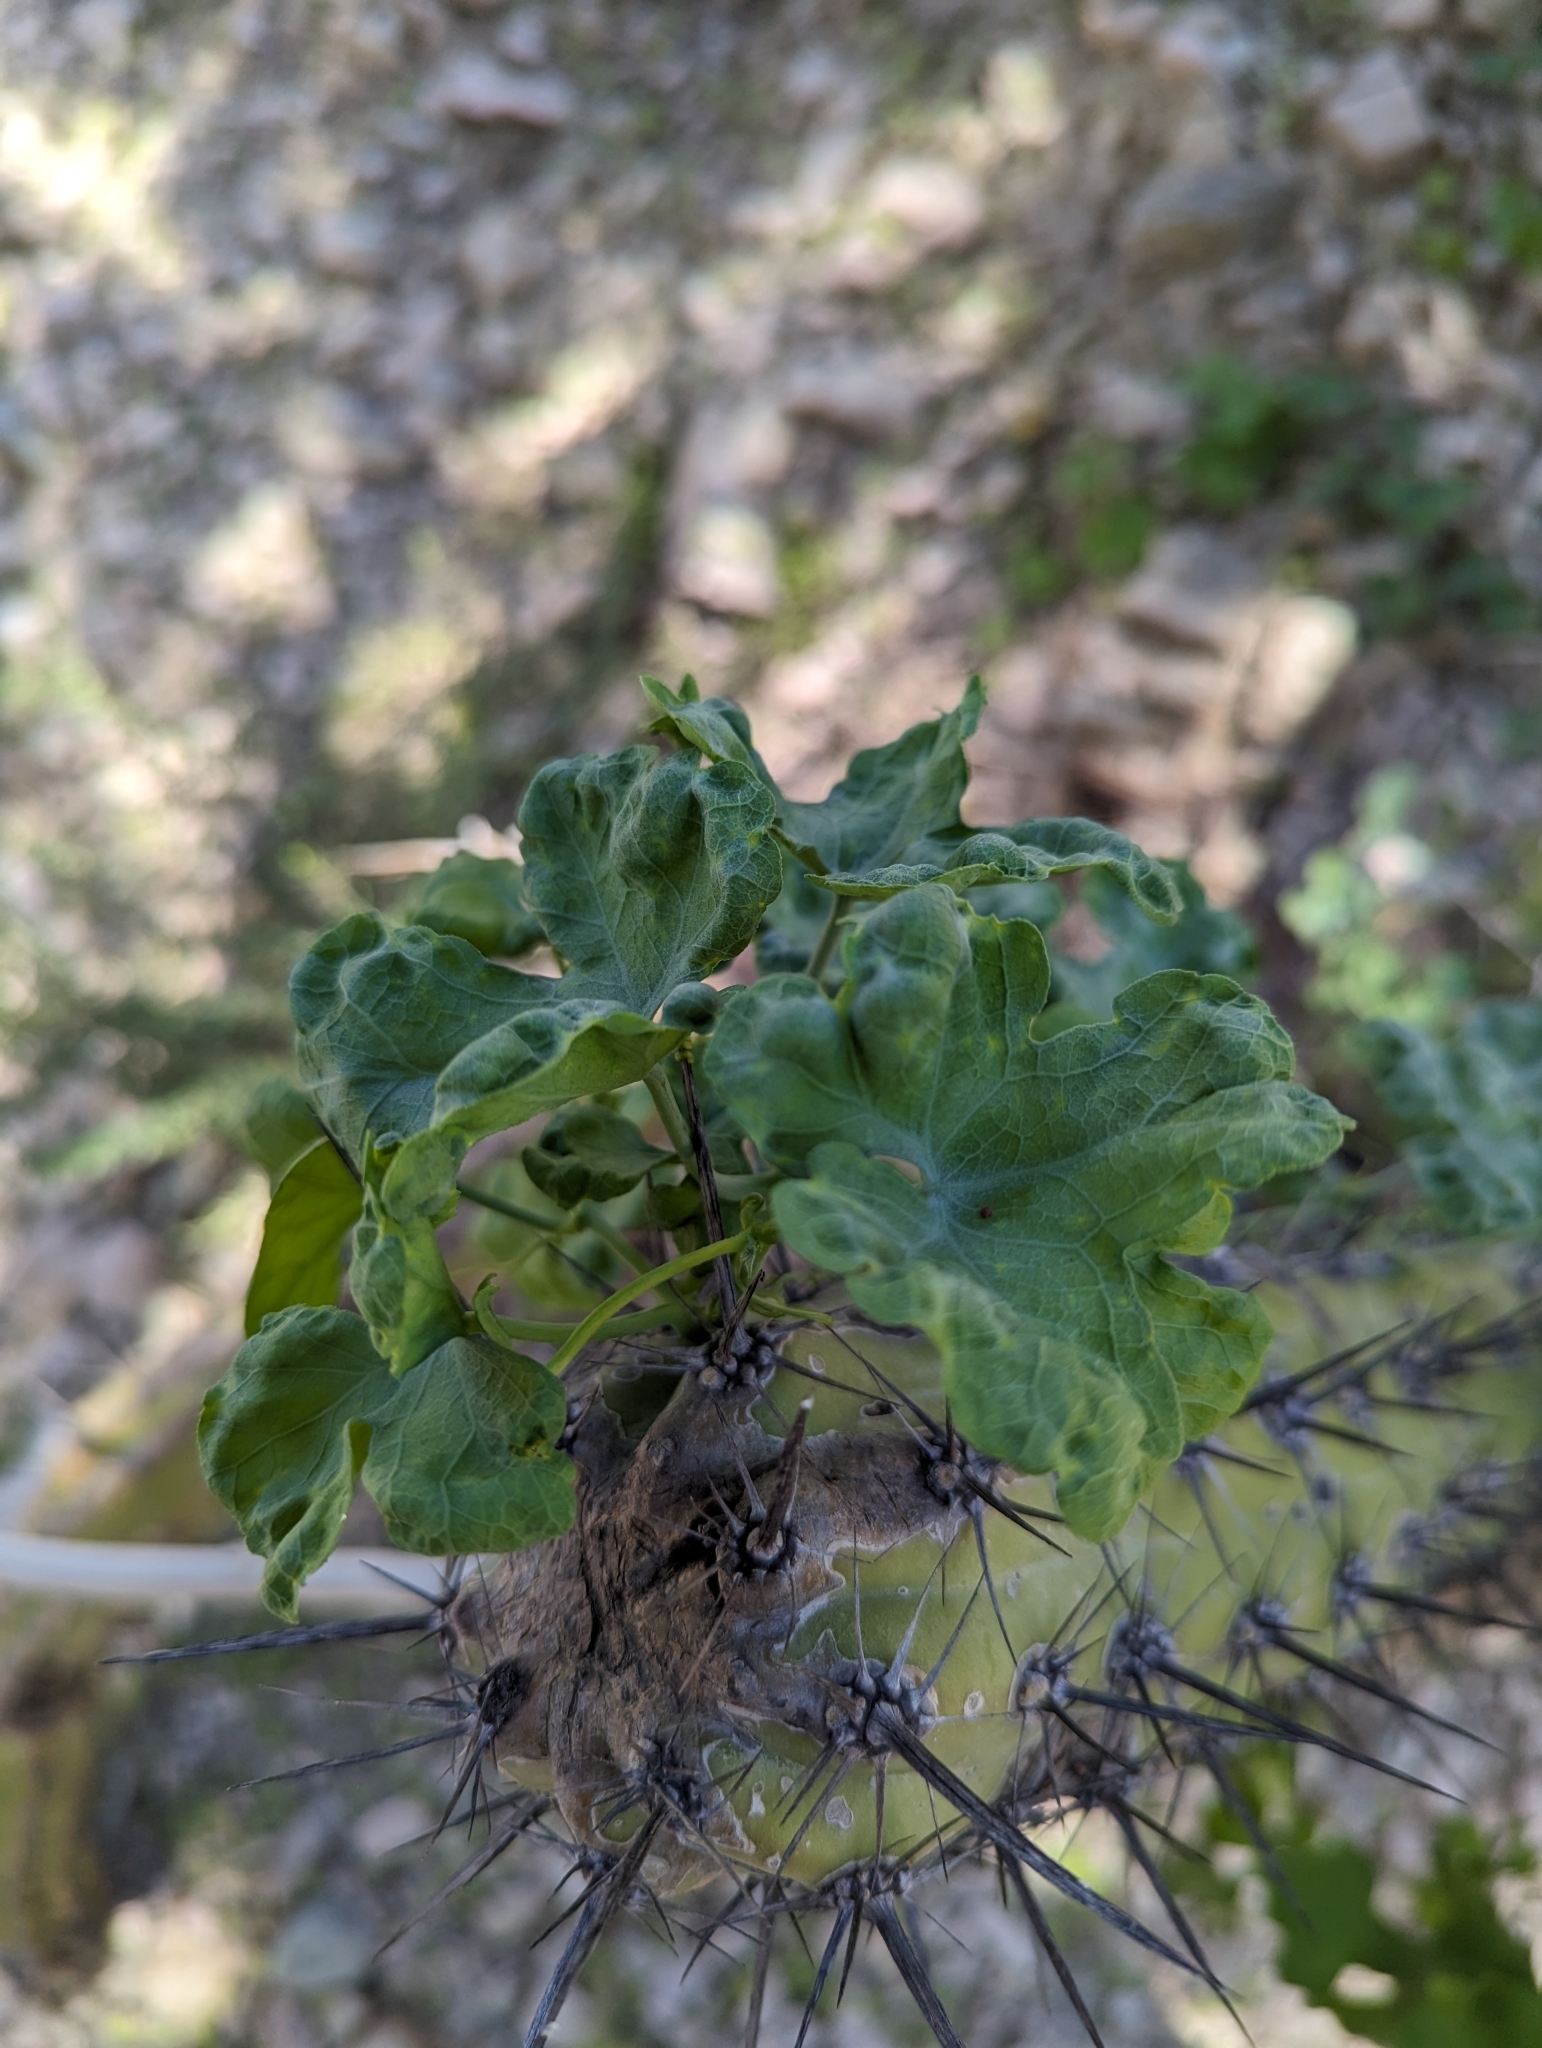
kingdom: Plantae
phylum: Tracheophyta
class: Magnoliopsida
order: Cucurbitales
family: Cucurbitaceae
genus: Ibervillea
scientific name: Ibervillea sonorae
